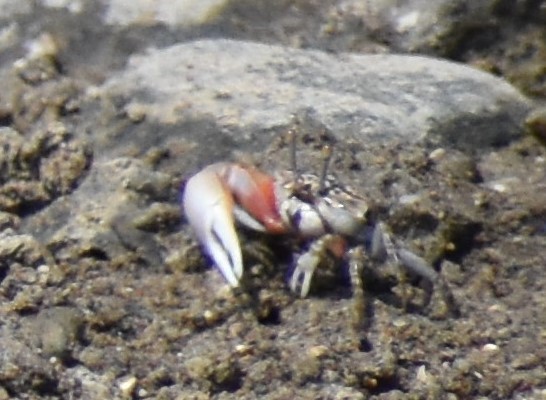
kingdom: Animalia
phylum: Arthropoda
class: Malacostraca
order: Decapoda
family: Ocypodidae
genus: Cranuca
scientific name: Cranuca inversa
